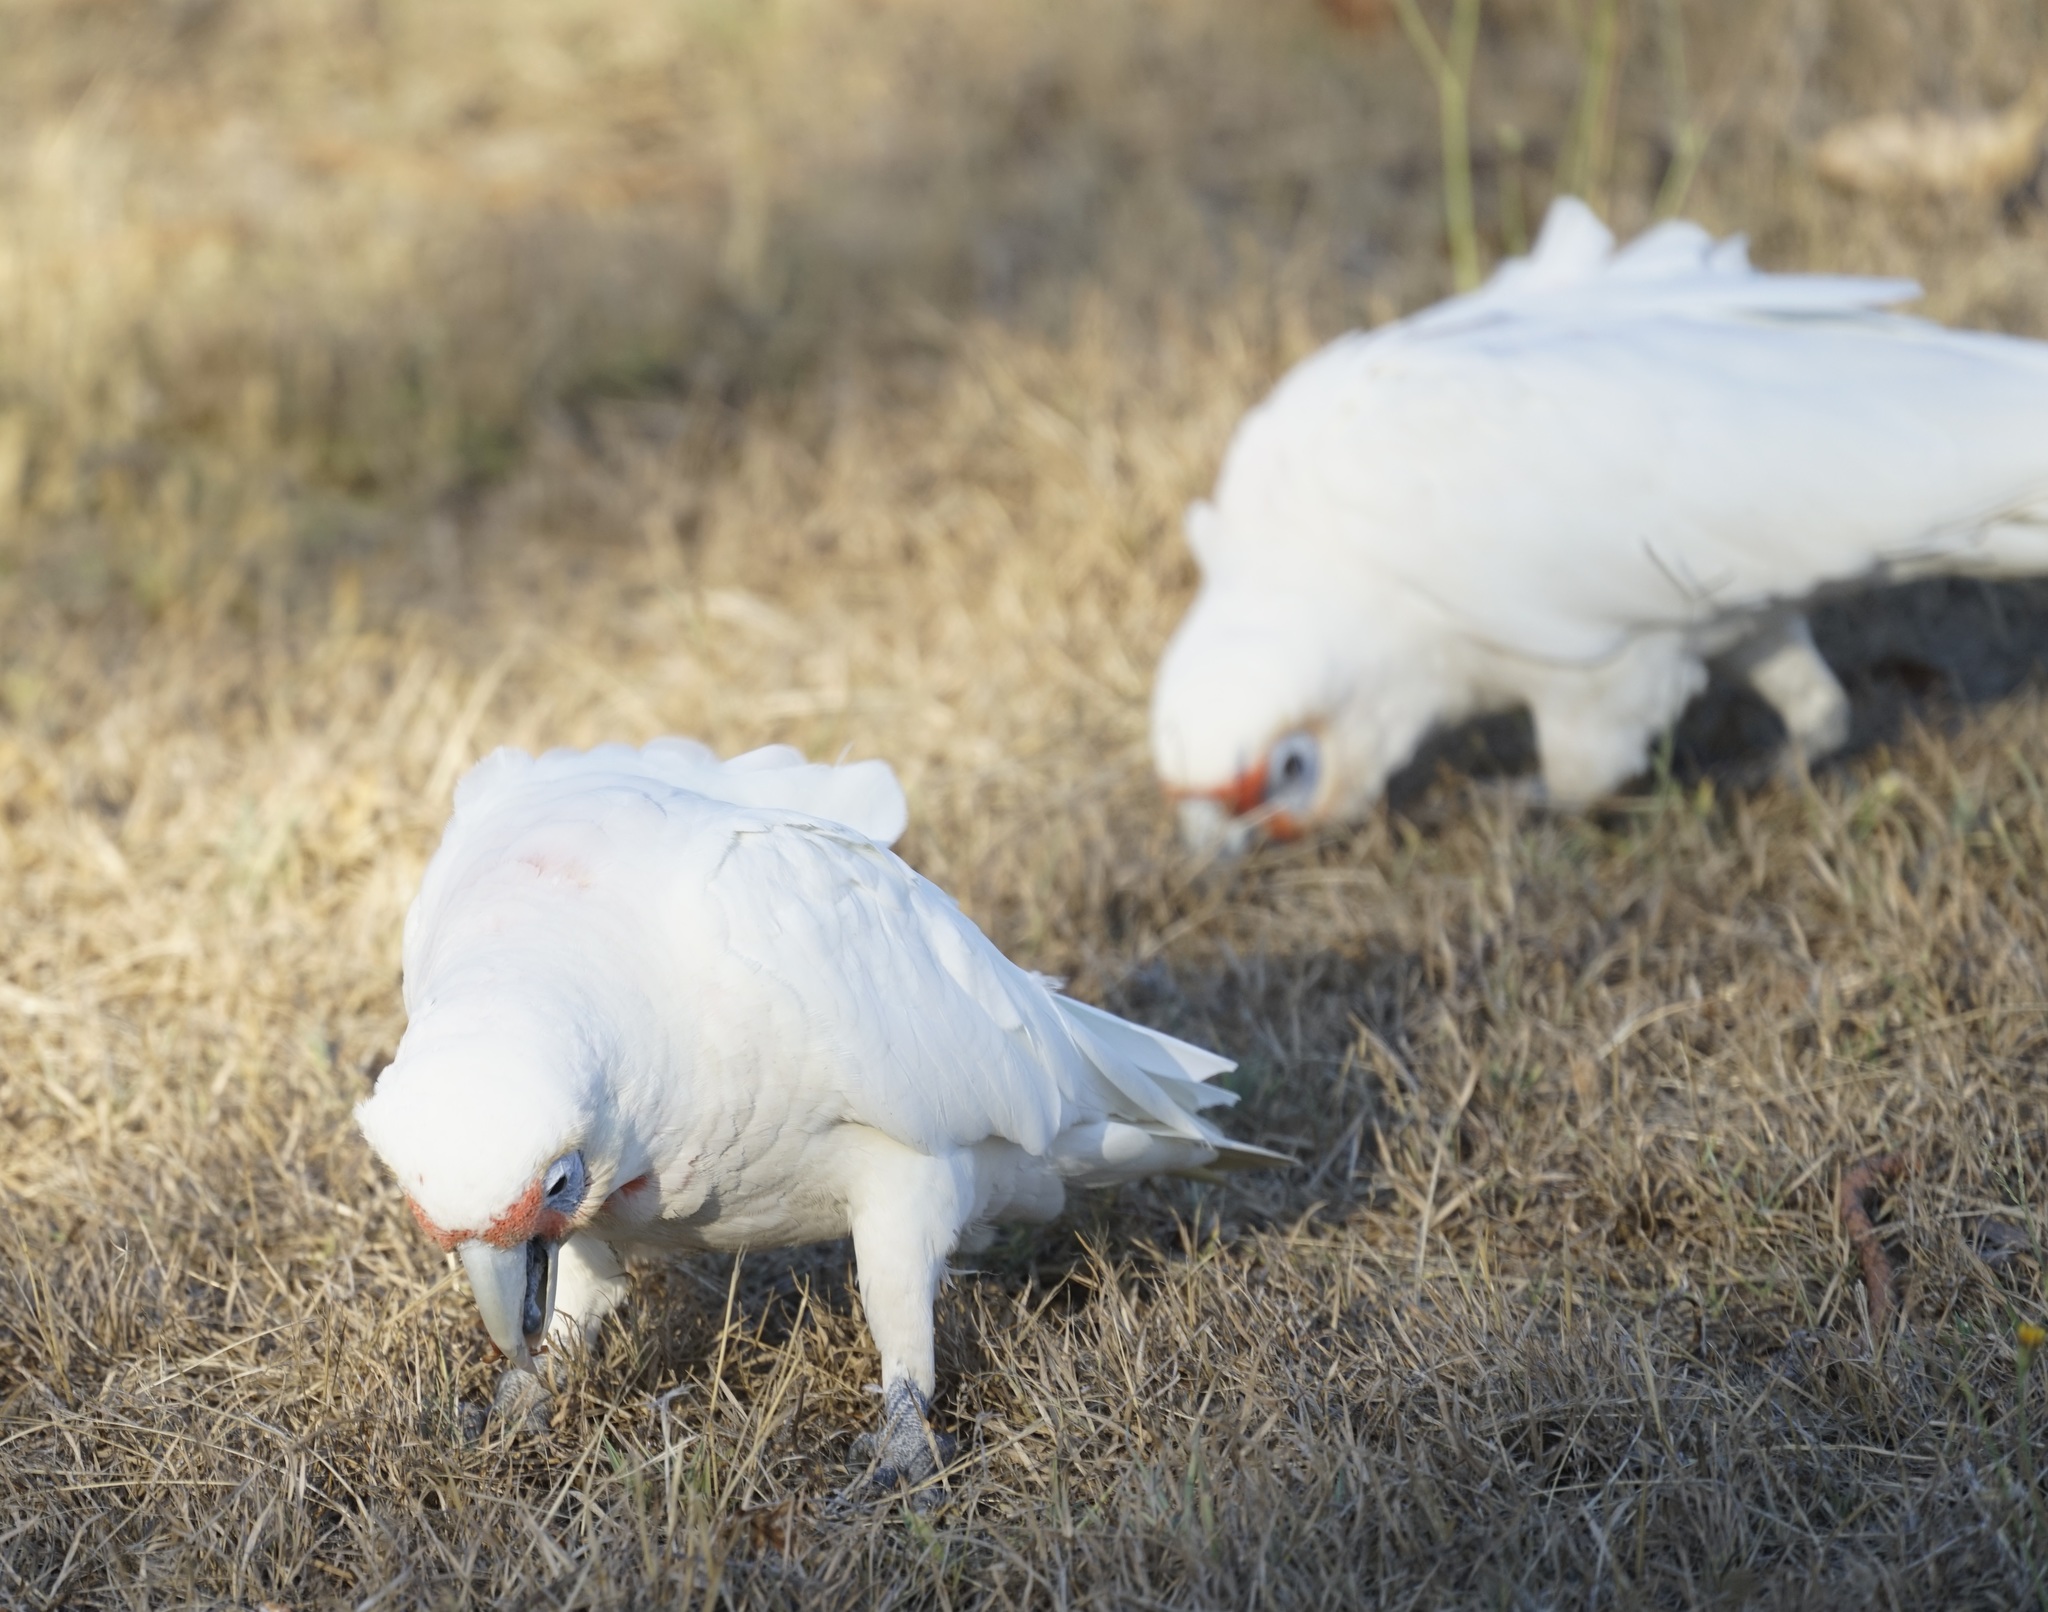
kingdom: Animalia
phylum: Chordata
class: Aves
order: Psittaciformes
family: Psittacidae
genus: Cacatua
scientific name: Cacatua tenuirostris
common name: Long-billed corella
